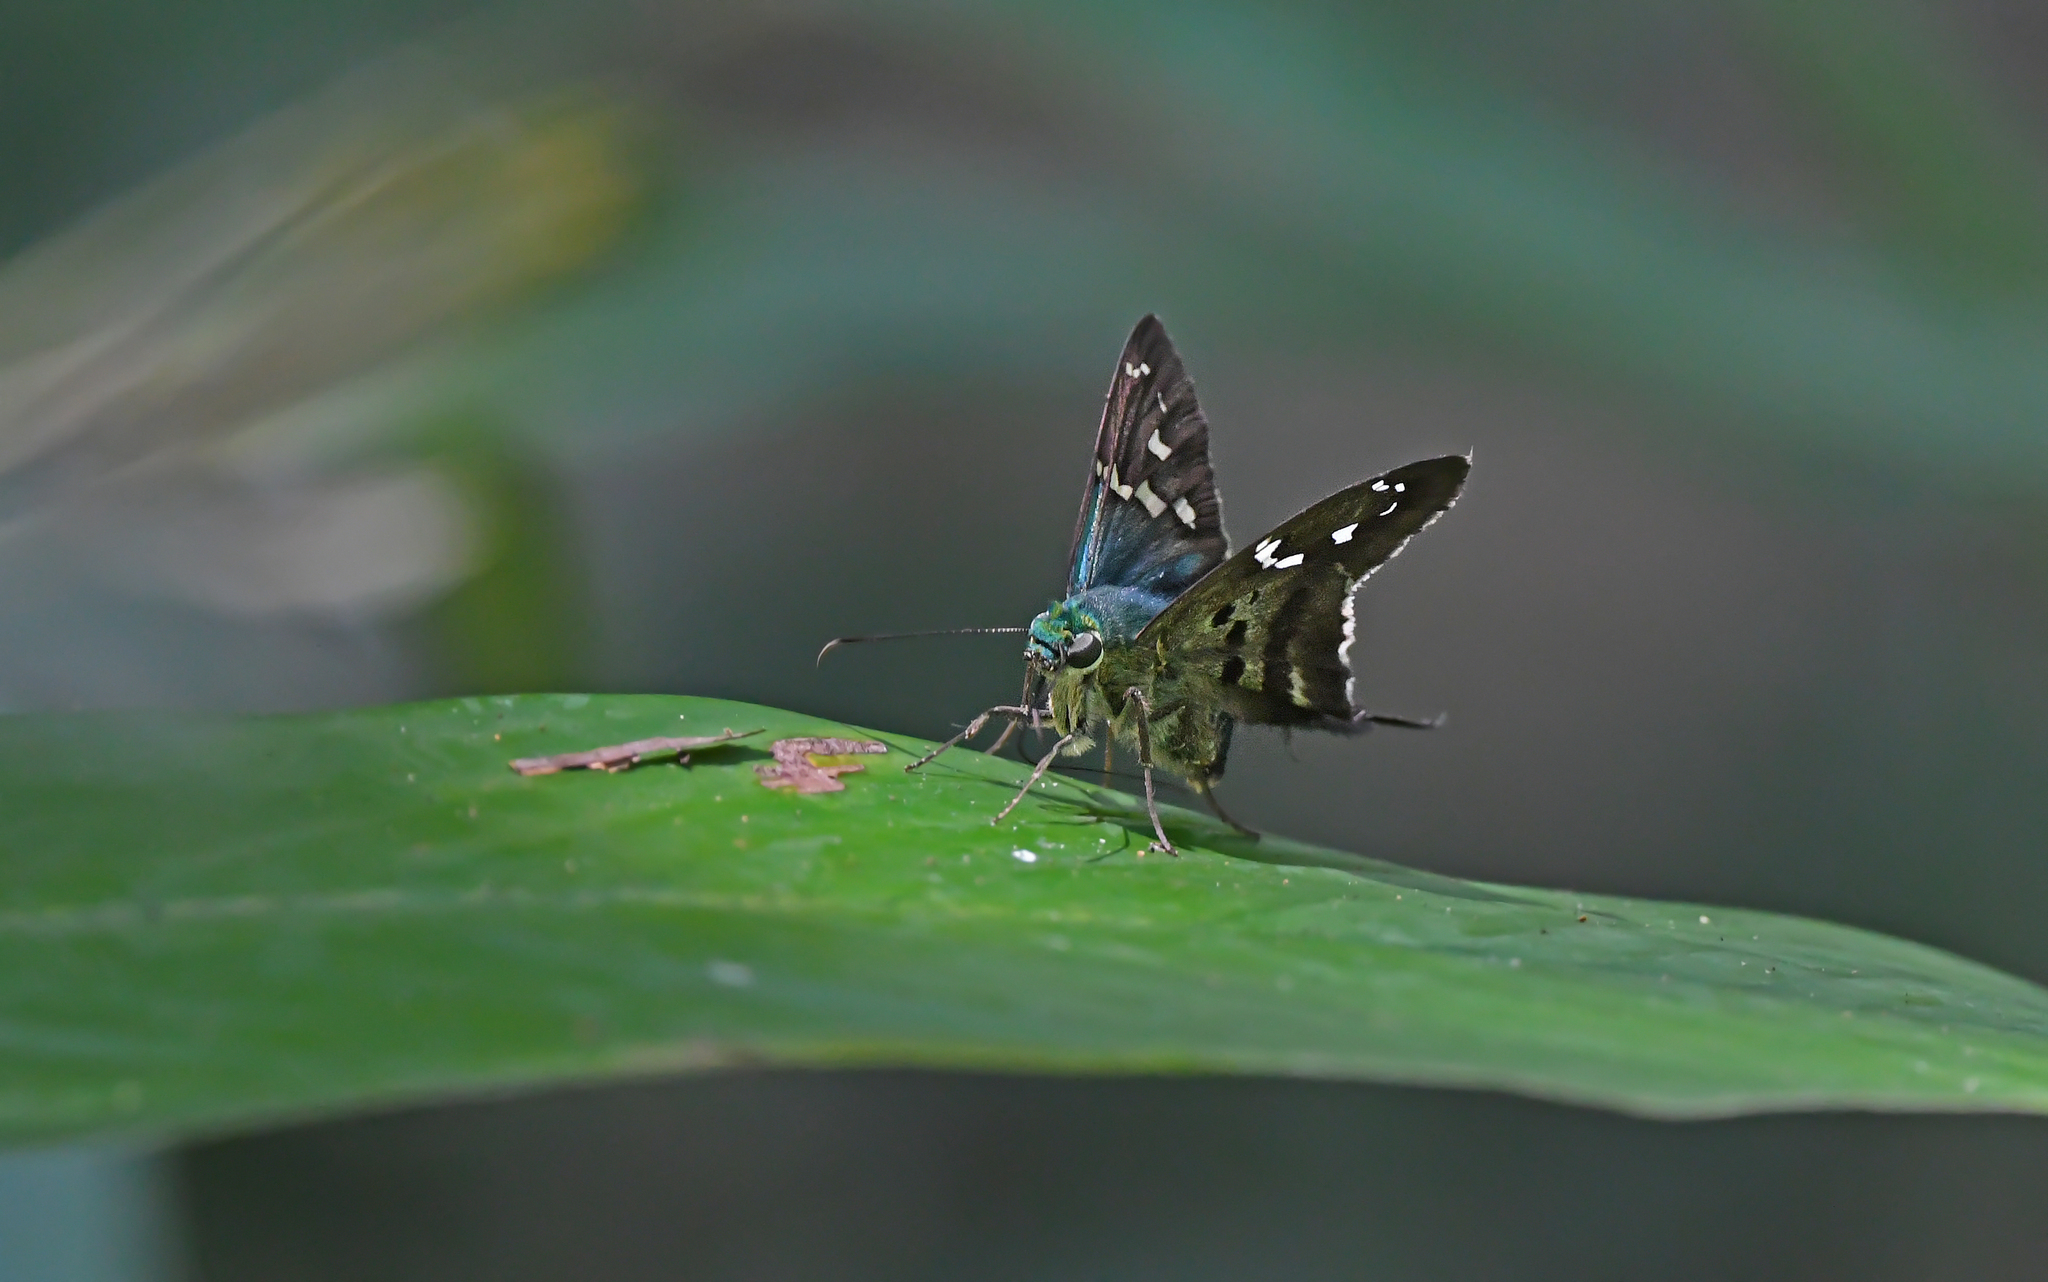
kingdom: Animalia
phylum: Arthropoda
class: Insecta
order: Lepidoptera
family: Hesperiidae
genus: Urbanus
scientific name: Urbanus pronta
